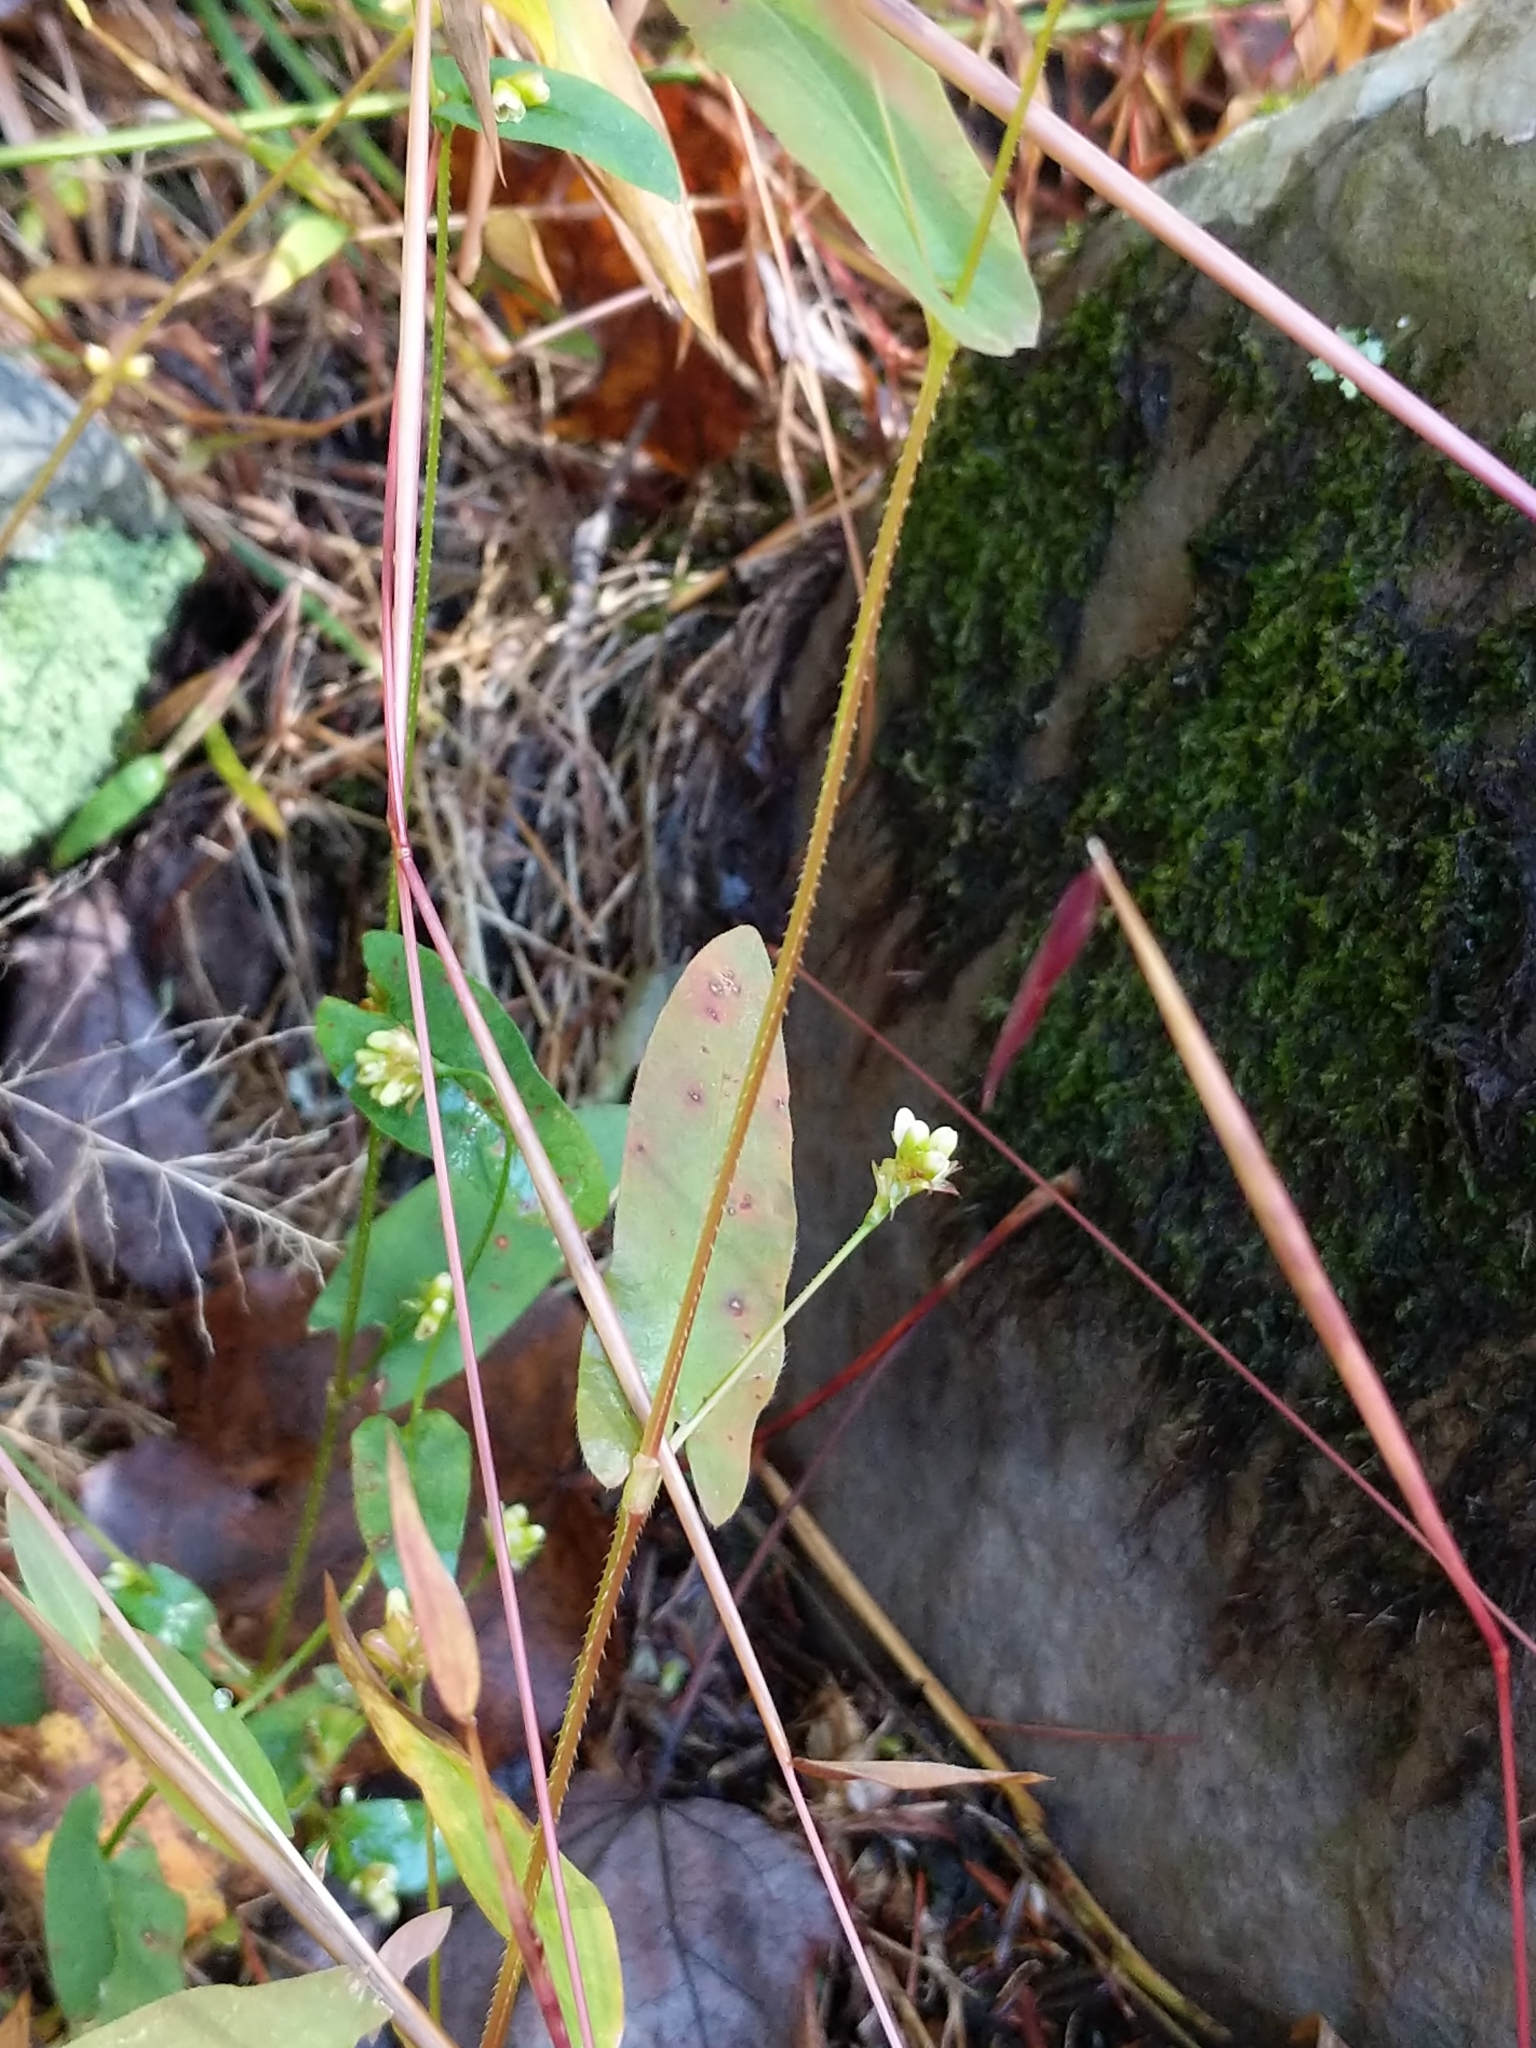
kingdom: Plantae
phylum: Tracheophyta
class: Magnoliopsida
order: Caryophyllales
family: Polygonaceae
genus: Persicaria
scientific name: Persicaria sagittata
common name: American tearthumb
